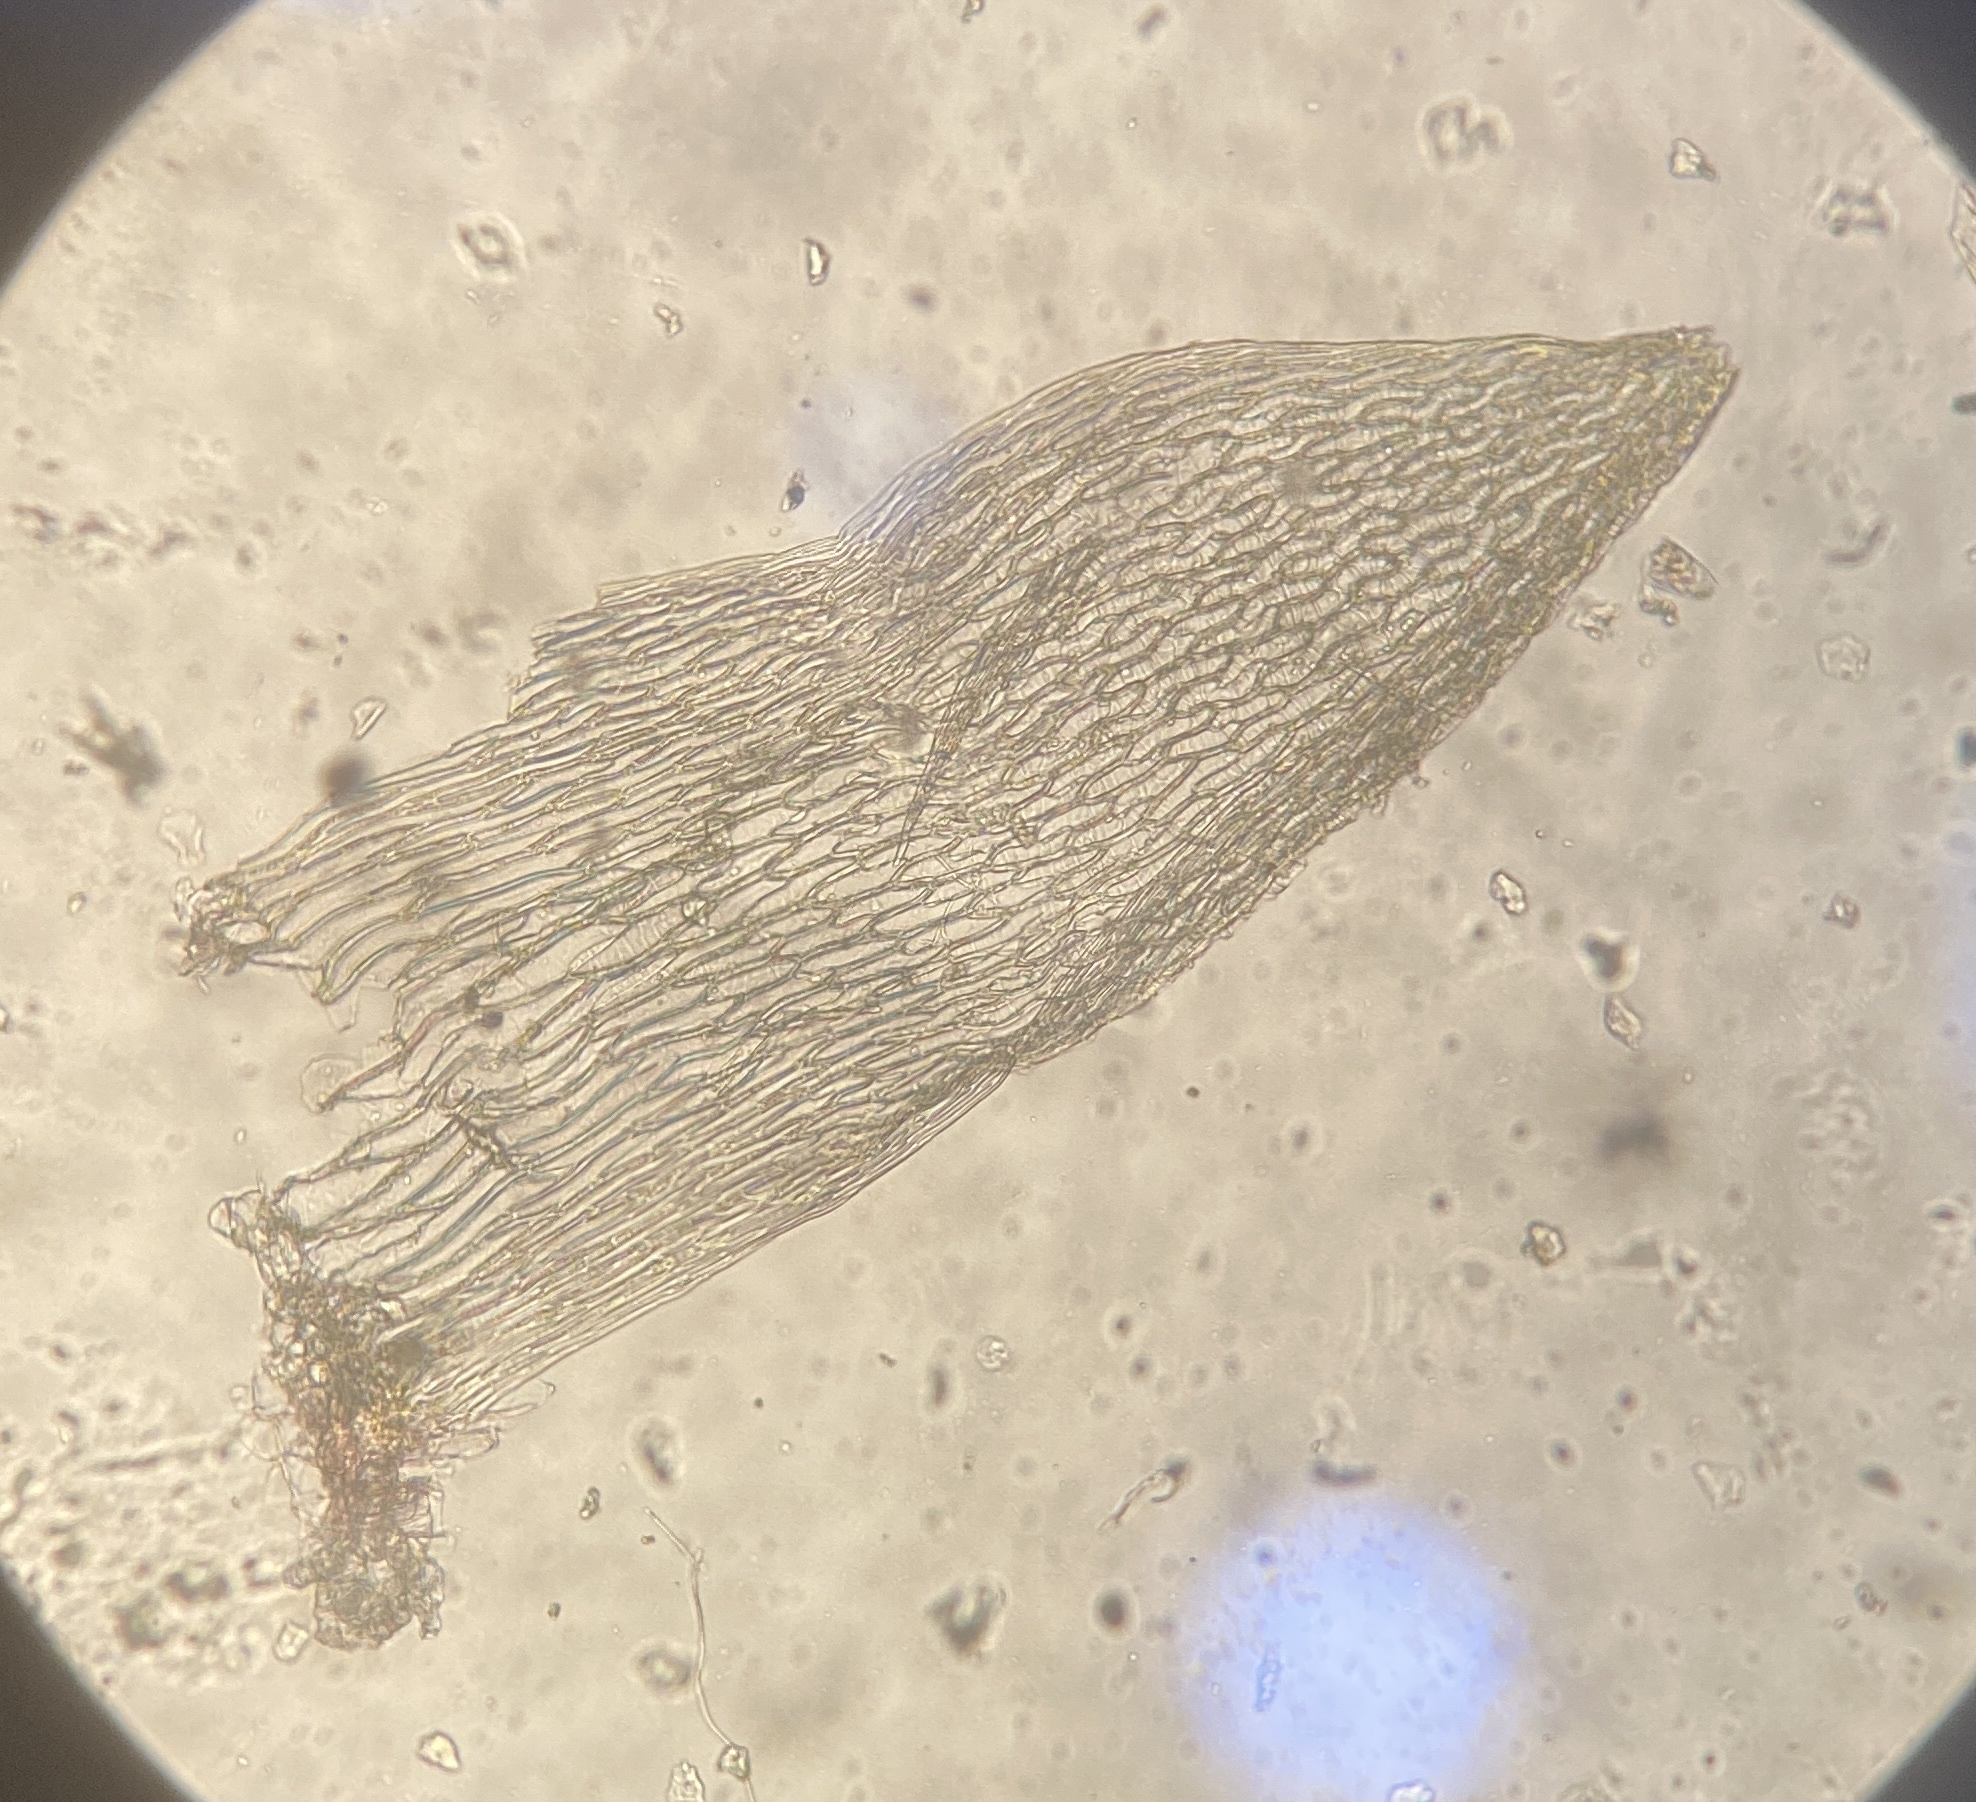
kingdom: Plantae
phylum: Bryophyta
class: Sphagnopsida
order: Sphagnales
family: Sphagnaceae
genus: Sphagnum
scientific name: Sphagnum capillifolium
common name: Small red peat moss
